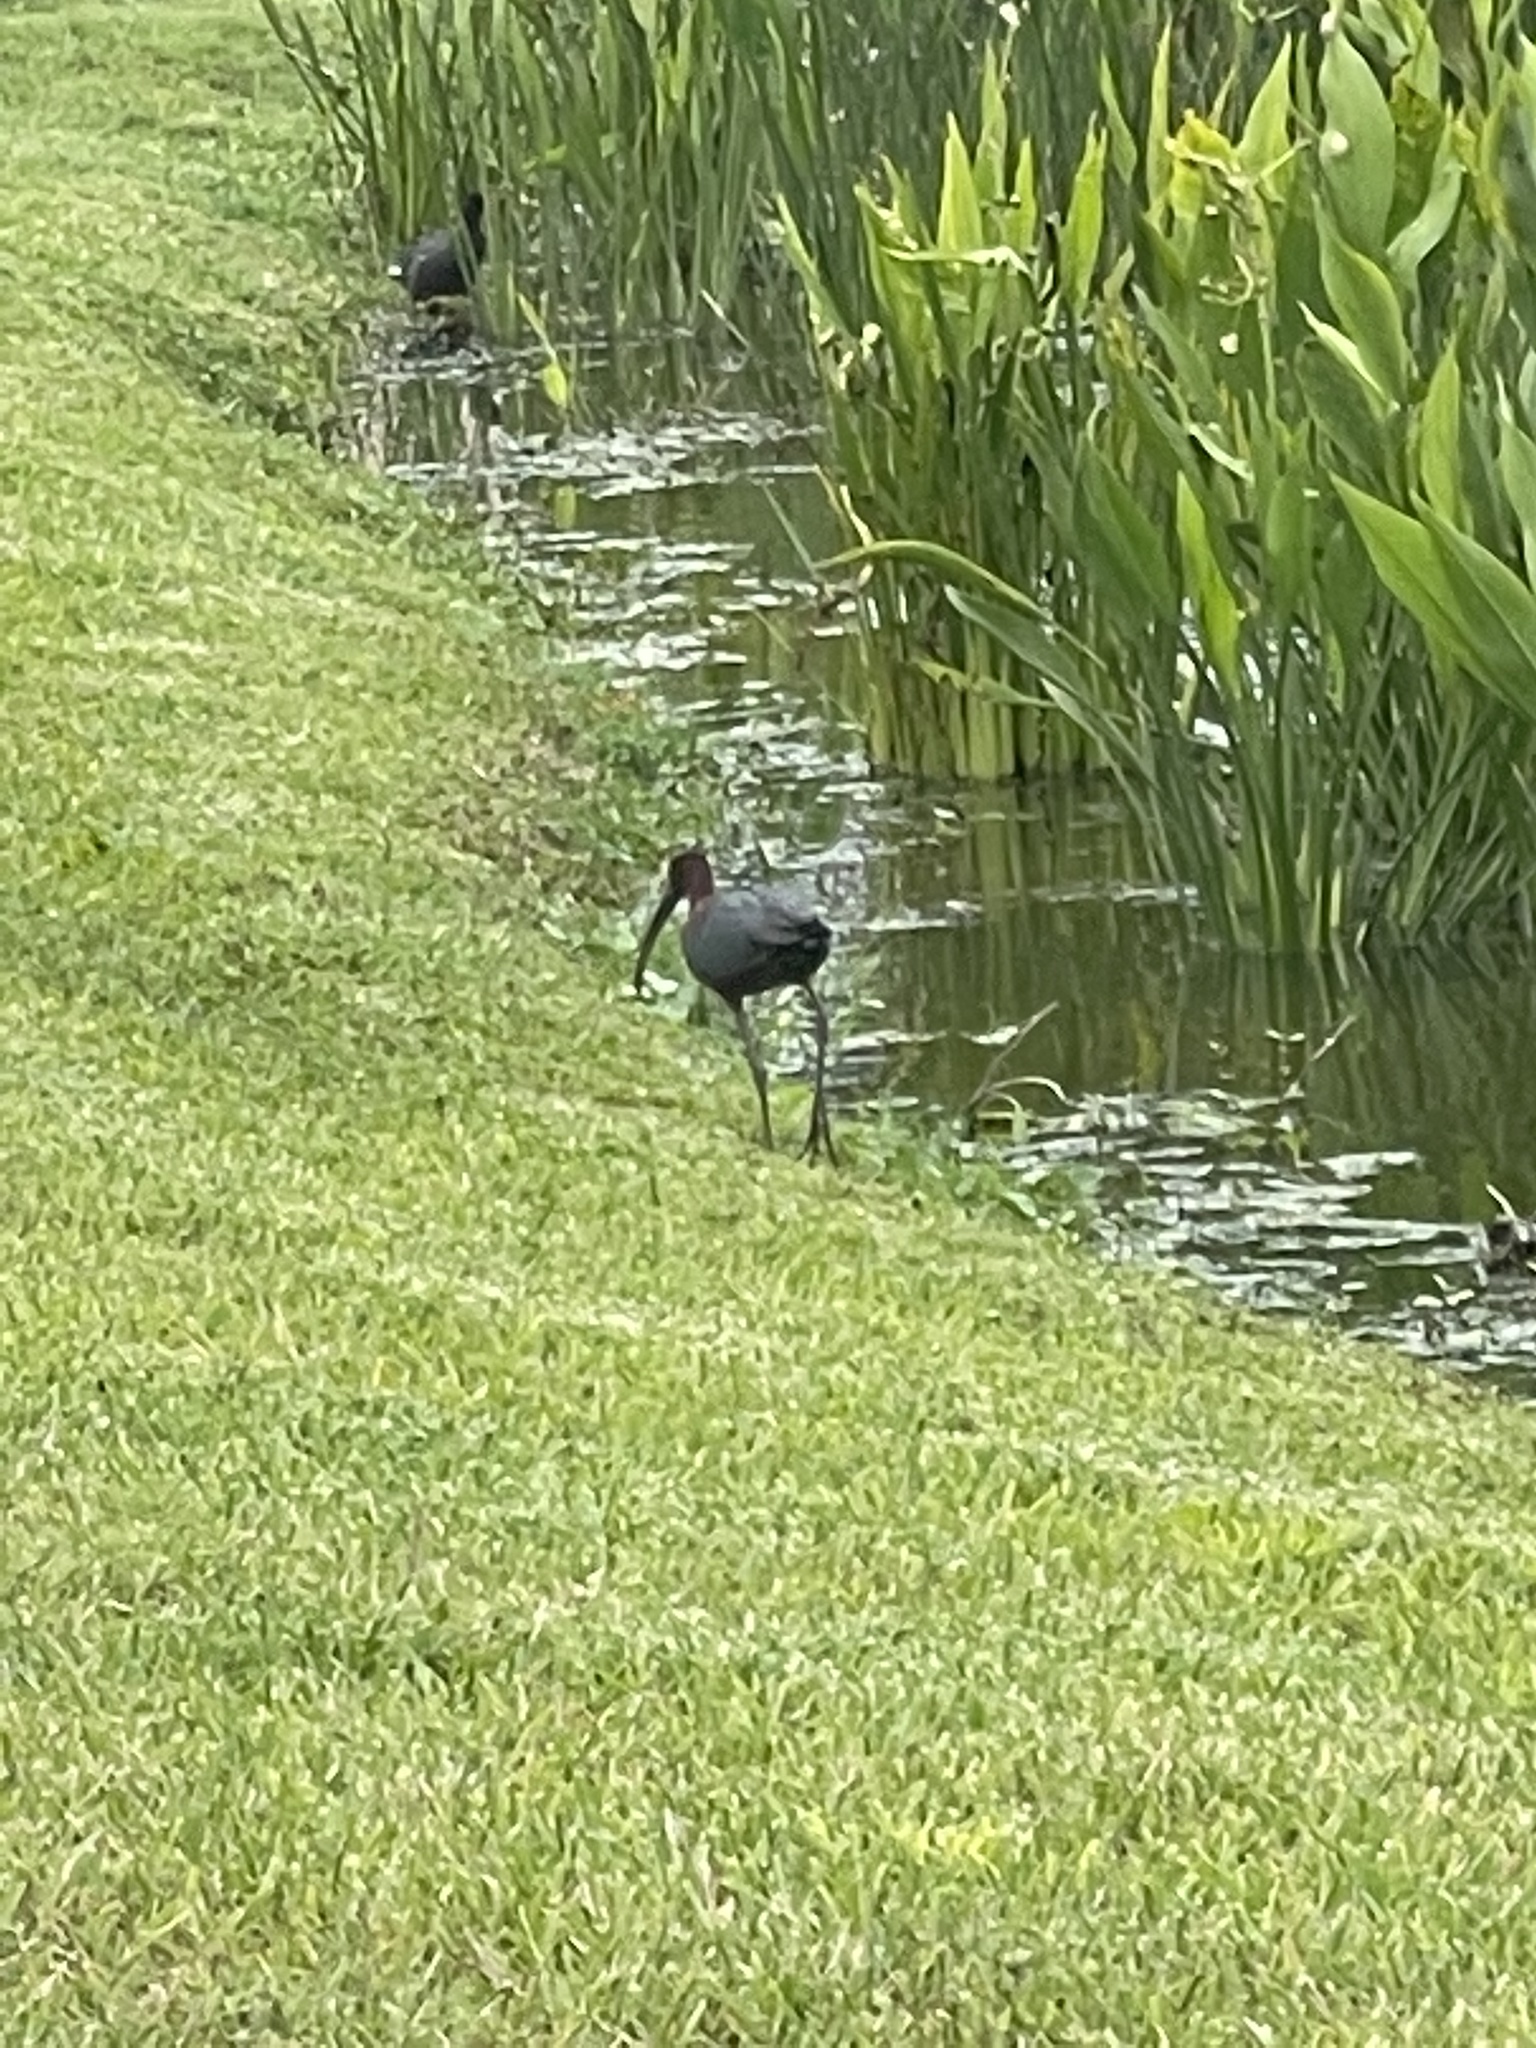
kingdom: Animalia
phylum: Chordata
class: Aves
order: Pelecaniformes
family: Threskiornithidae
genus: Plegadis
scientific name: Plegadis falcinellus
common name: Glossy ibis
